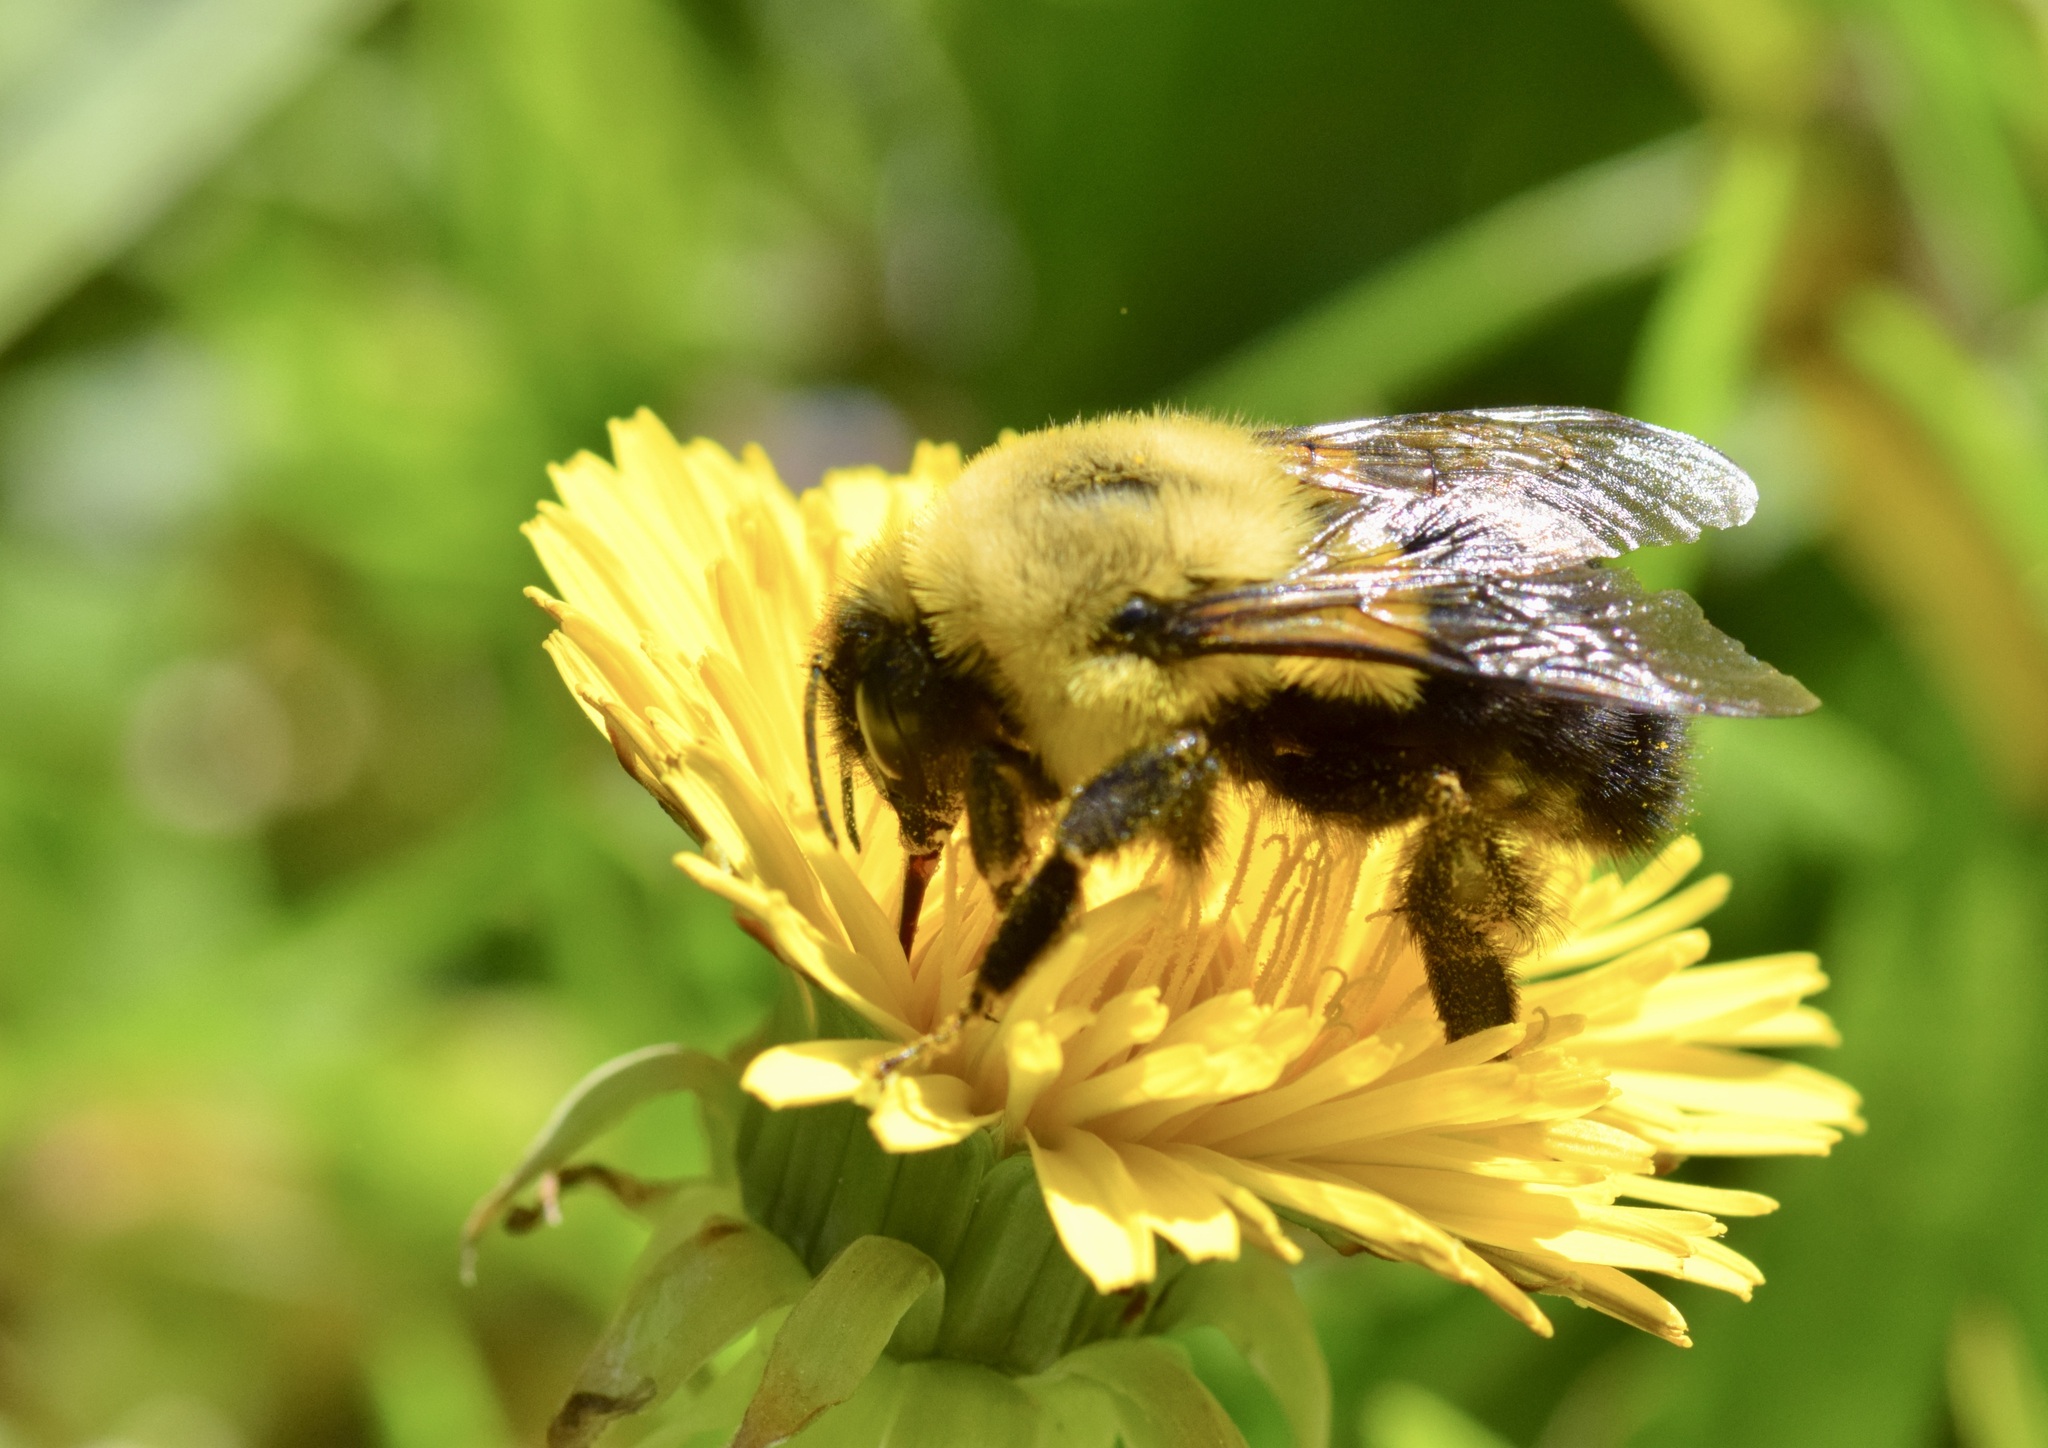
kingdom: Animalia
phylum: Arthropoda
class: Insecta
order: Hymenoptera
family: Apidae
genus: Bombus
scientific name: Bombus impatiens
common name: Common eastern bumble bee
